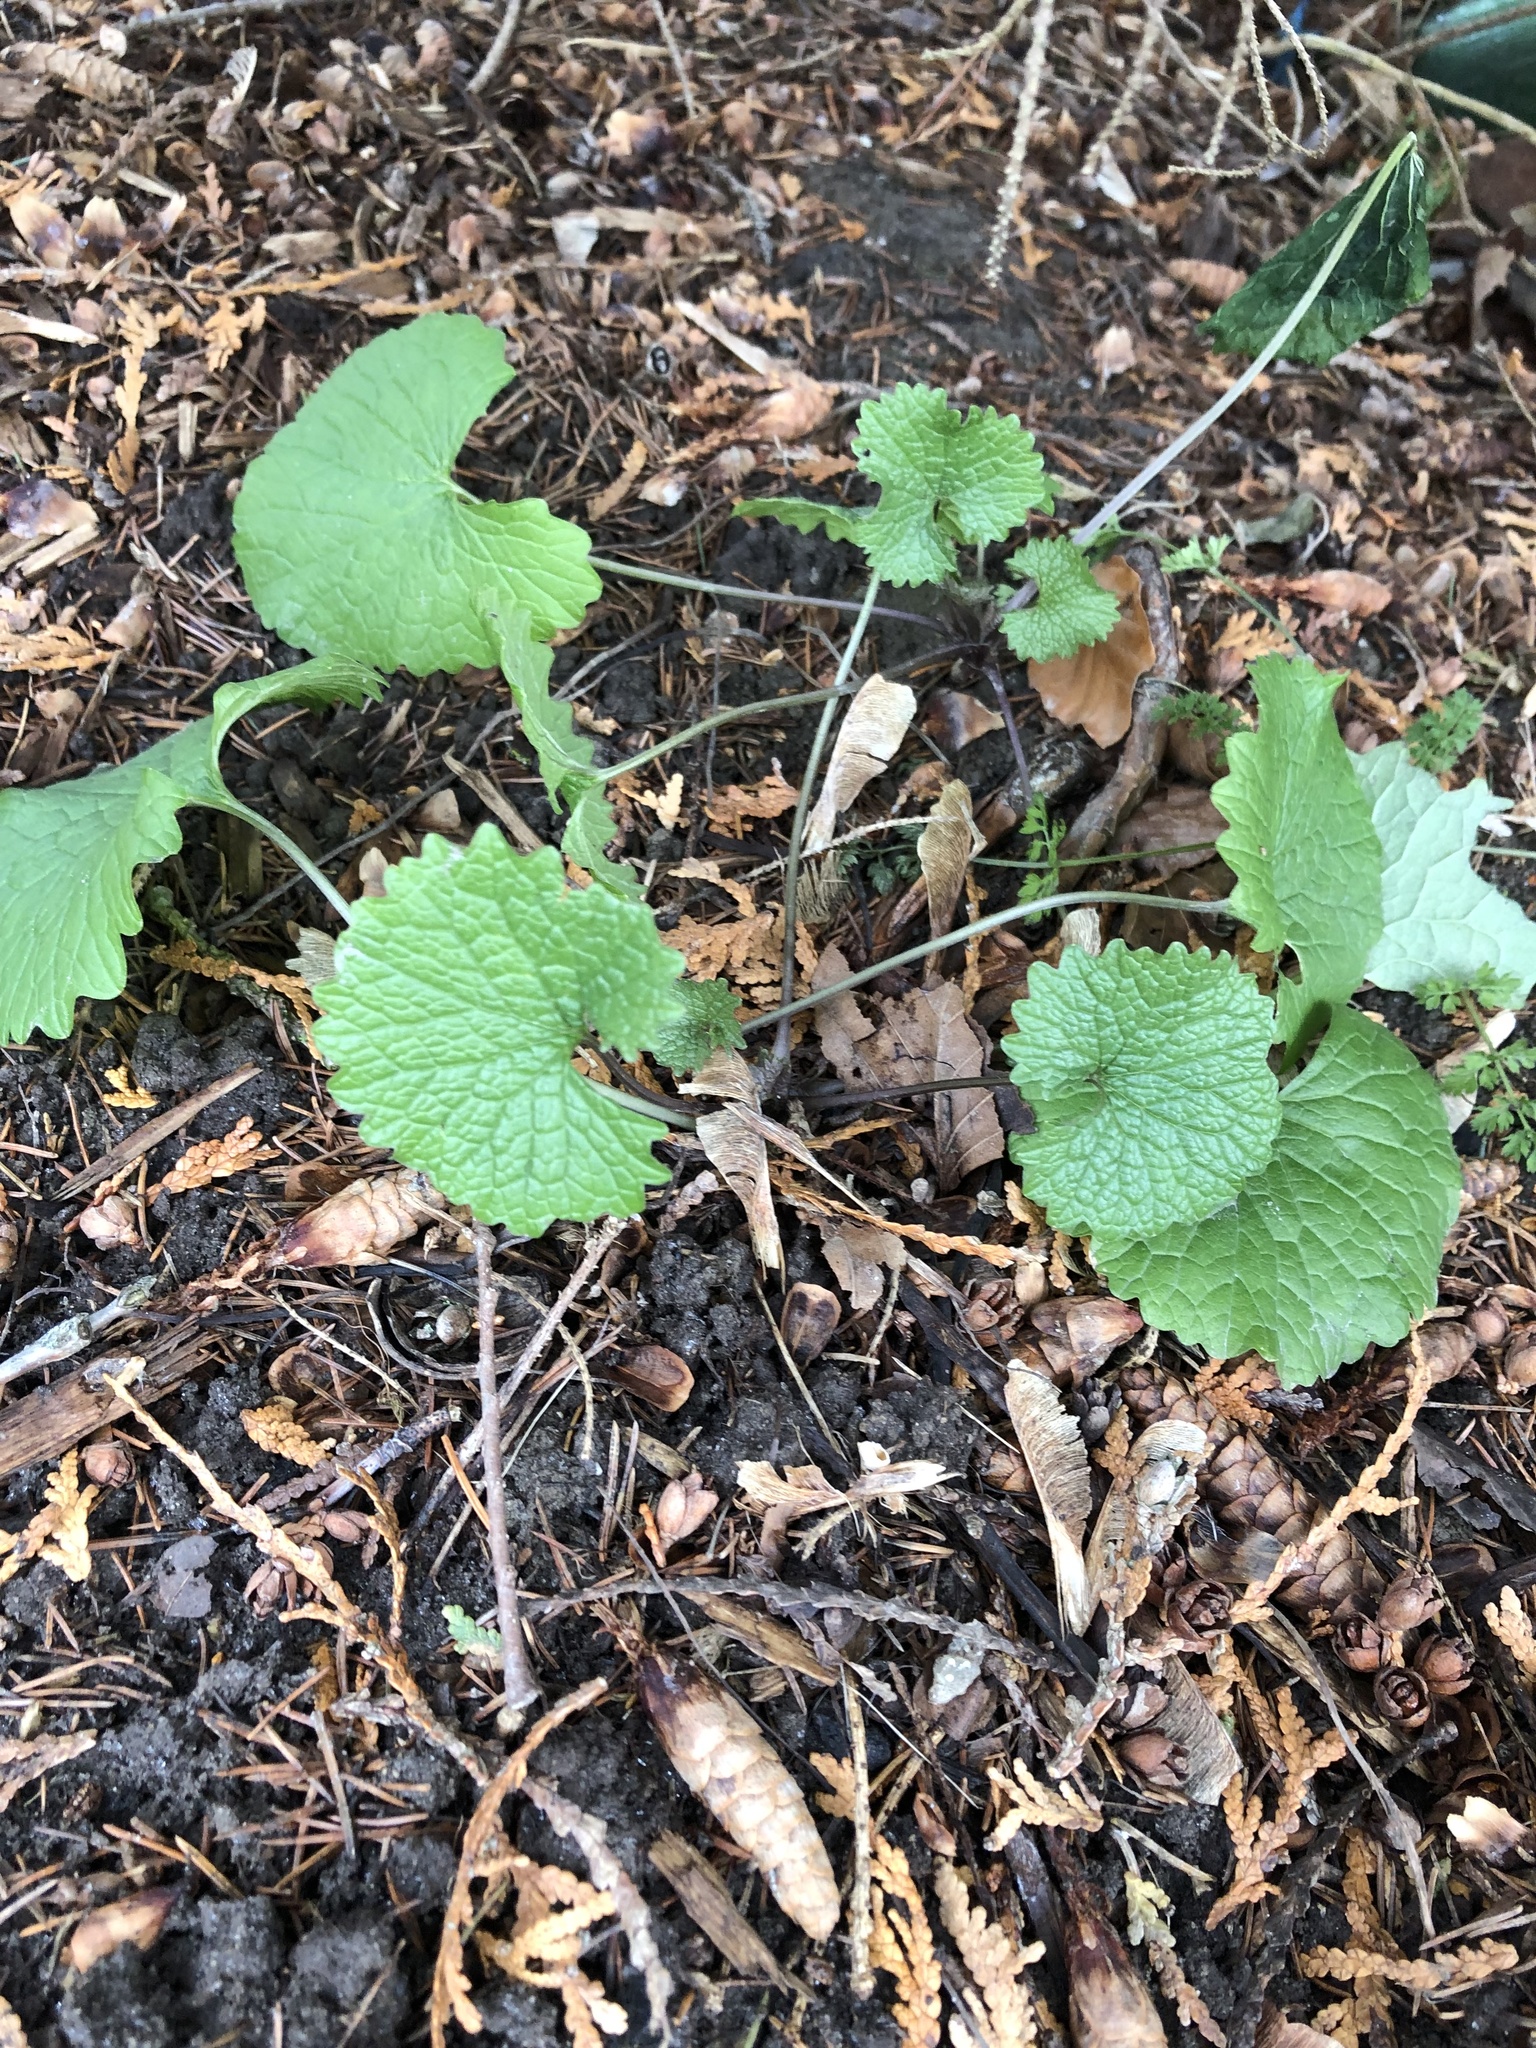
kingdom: Plantae
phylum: Tracheophyta
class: Magnoliopsida
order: Brassicales
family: Brassicaceae
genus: Alliaria
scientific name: Alliaria petiolata
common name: Garlic mustard
